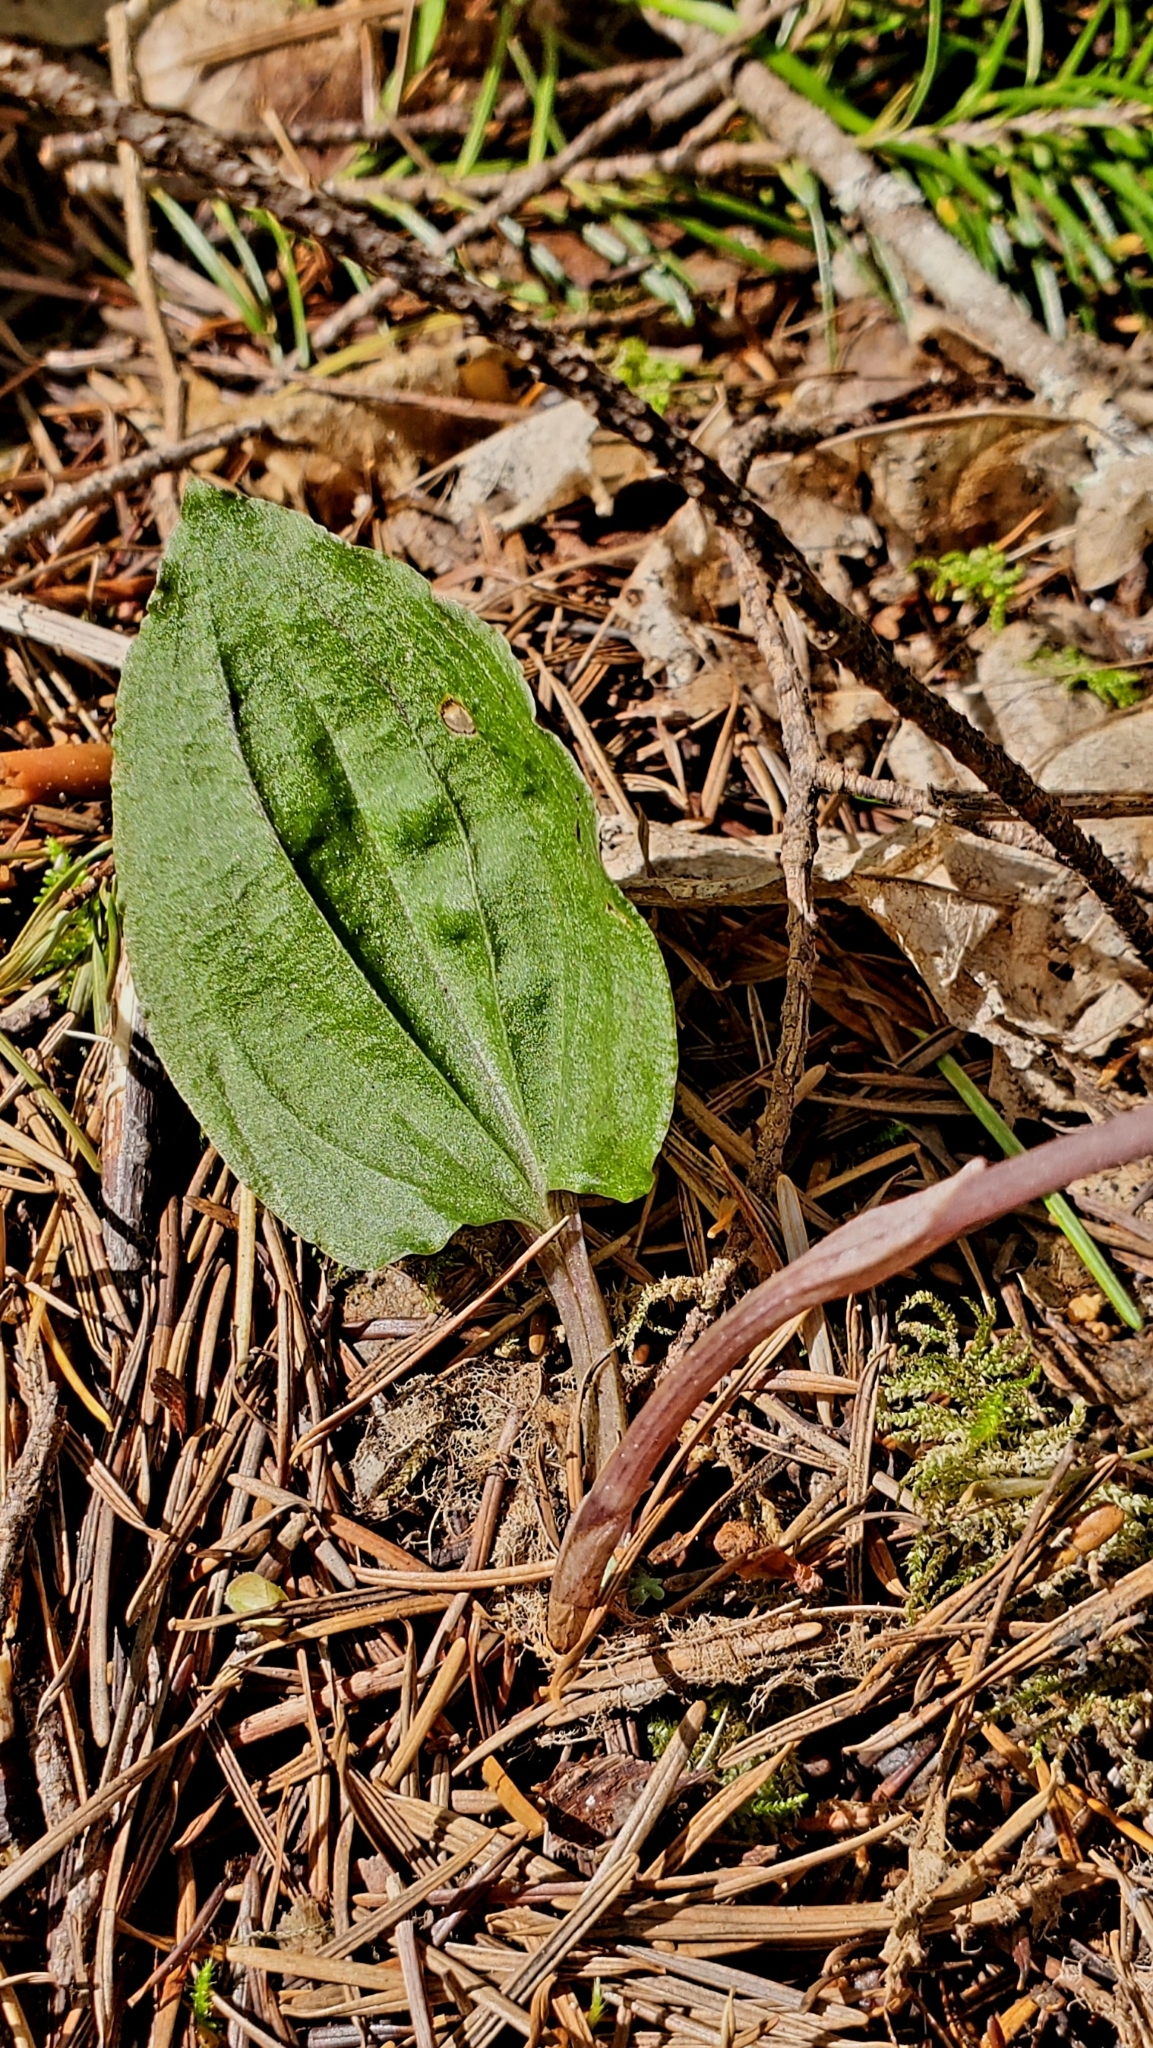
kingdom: Plantae
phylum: Tracheophyta
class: Liliopsida
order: Asparagales
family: Orchidaceae
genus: Calypso
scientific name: Calypso bulbosa
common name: Calypso
